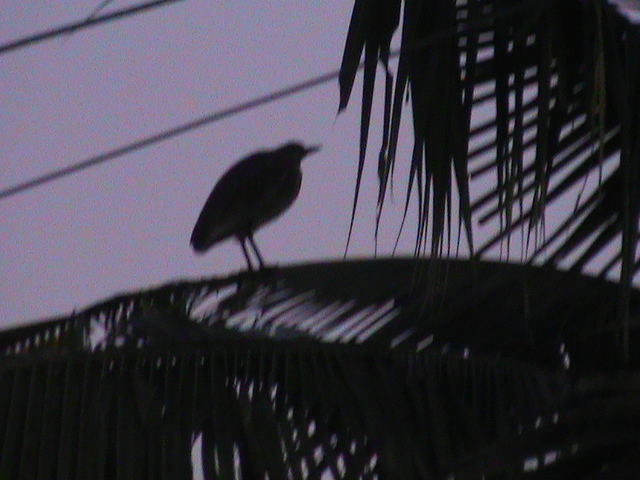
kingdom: Animalia
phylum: Chordata
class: Aves
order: Pelecaniformes
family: Ardeidae
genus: Ardeola
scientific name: Ardeola grayii
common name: Indian pond heron
